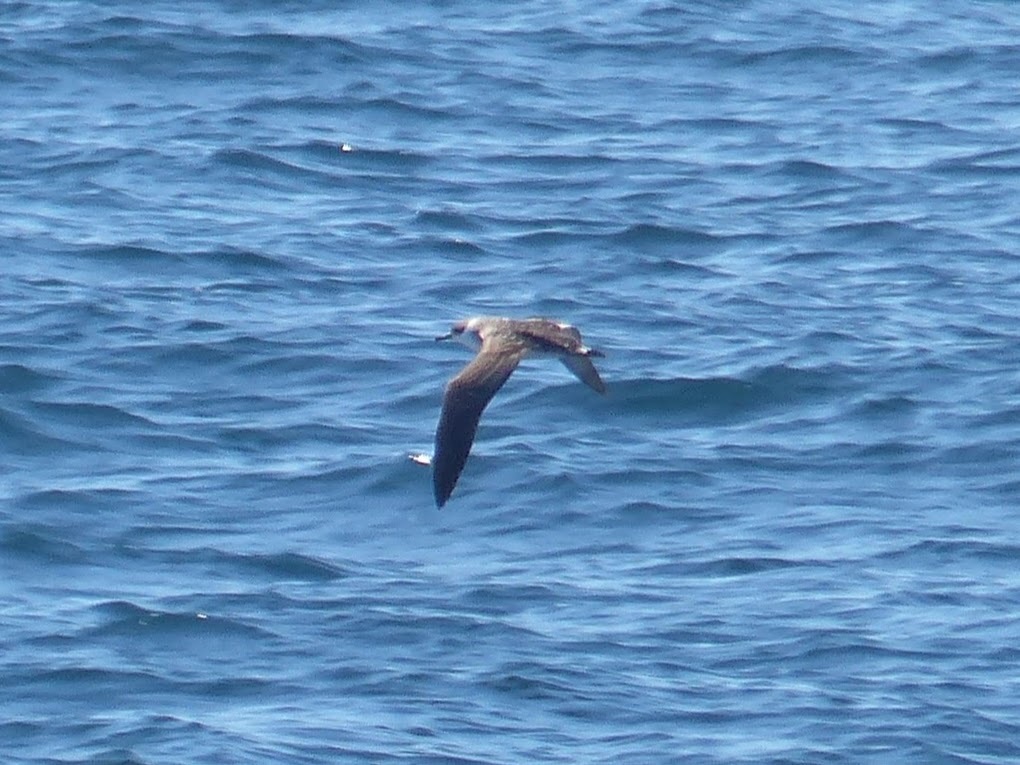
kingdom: Animalia
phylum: Chordata
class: Aves
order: Procellariiformes
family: Procellariidae
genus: Puffinus
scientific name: Puffinus gravis
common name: Great shearwater
